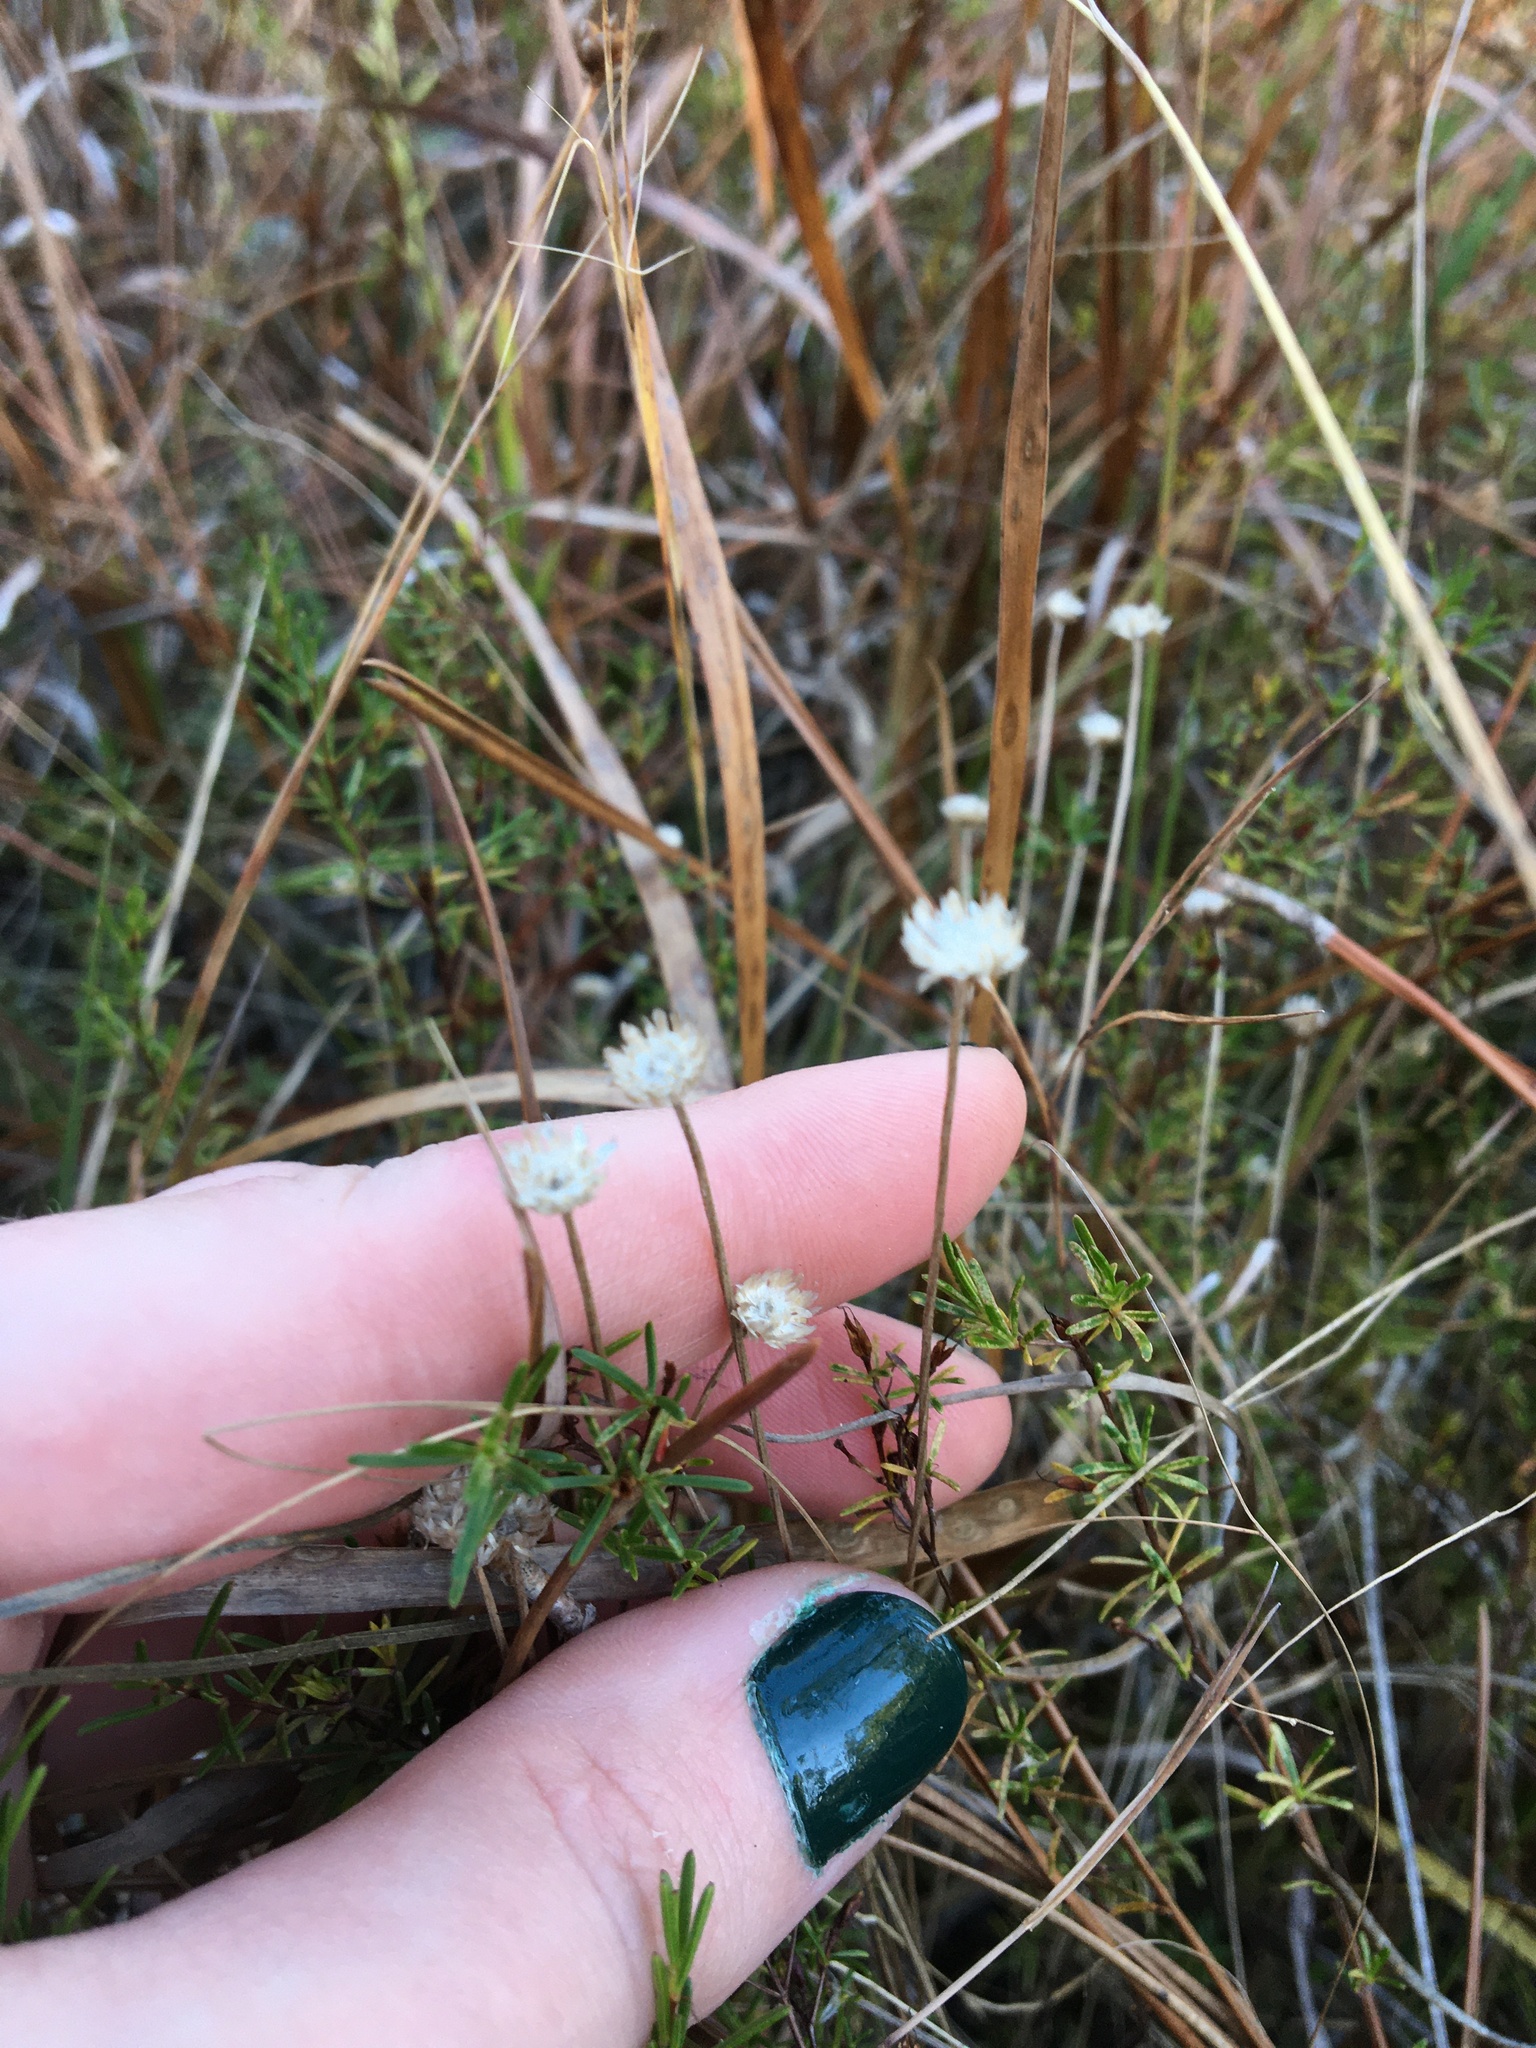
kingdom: Plantae
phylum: Tracheophyta
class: Liliopsida
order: Poales
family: Eriocaulaceae
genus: Syngonanthus
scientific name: Syngonanthus flavidulus
